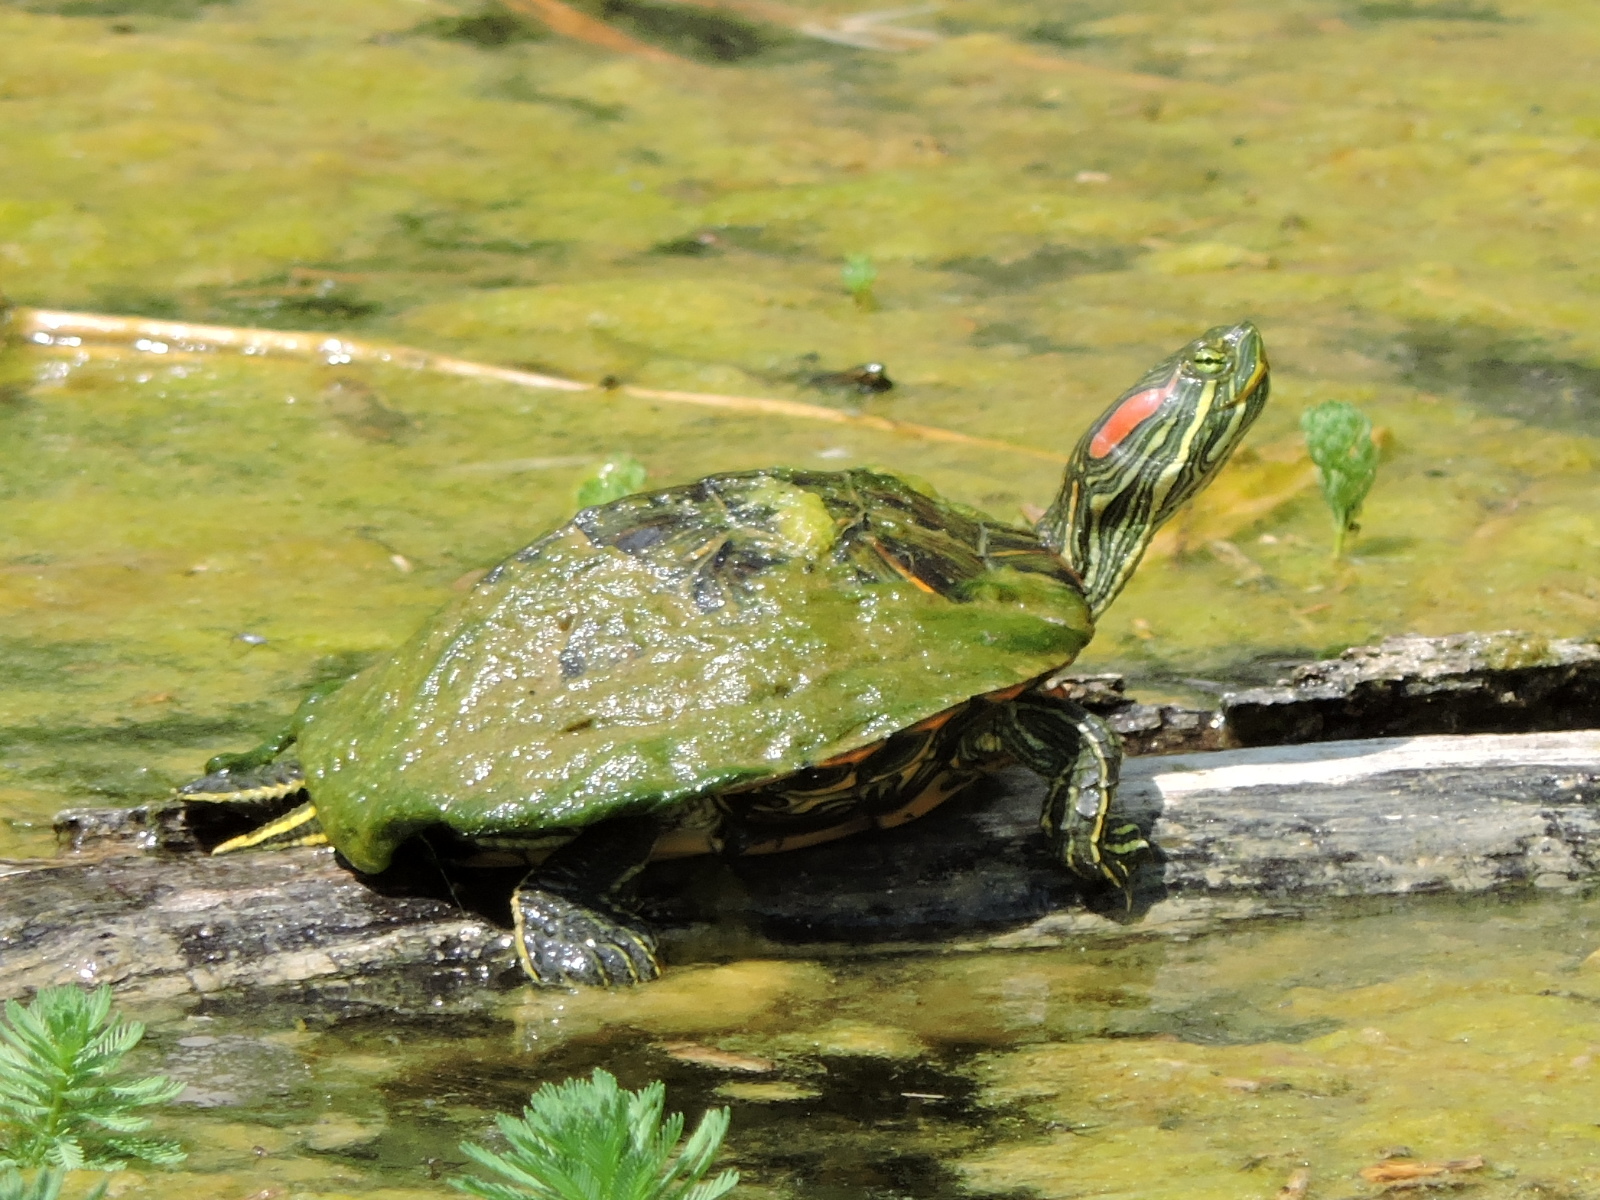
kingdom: Animalia
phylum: Chordata
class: Testudines
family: Emydidae
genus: Trachemys
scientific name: Trachemys scripta
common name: Slider
